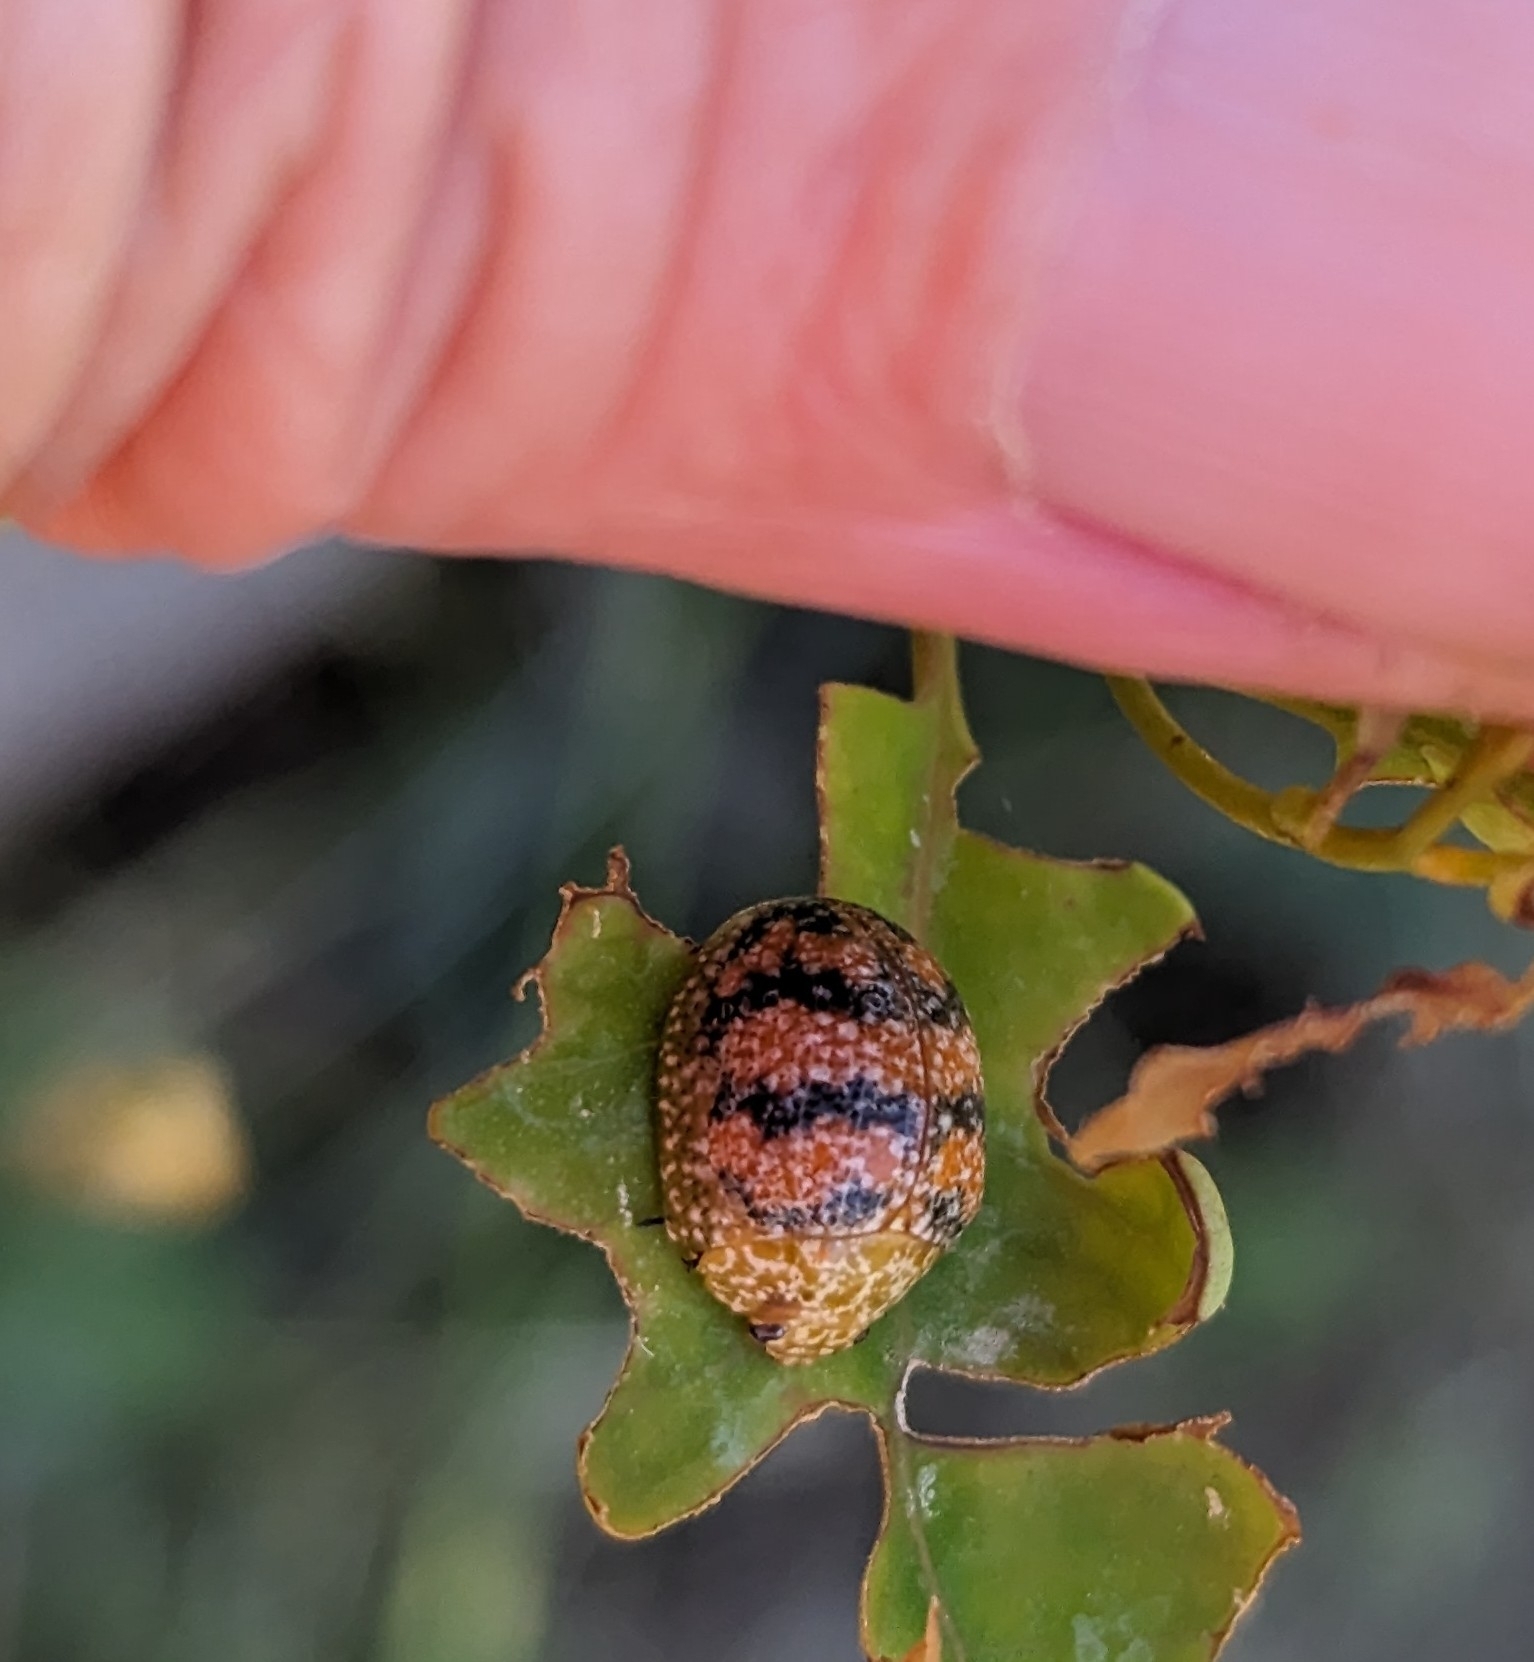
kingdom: Animalia
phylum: Arthropoda
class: Insecta
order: Coleoptera
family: Chrysomelidae
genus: Paropsis
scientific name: Paropsis obsoleta
